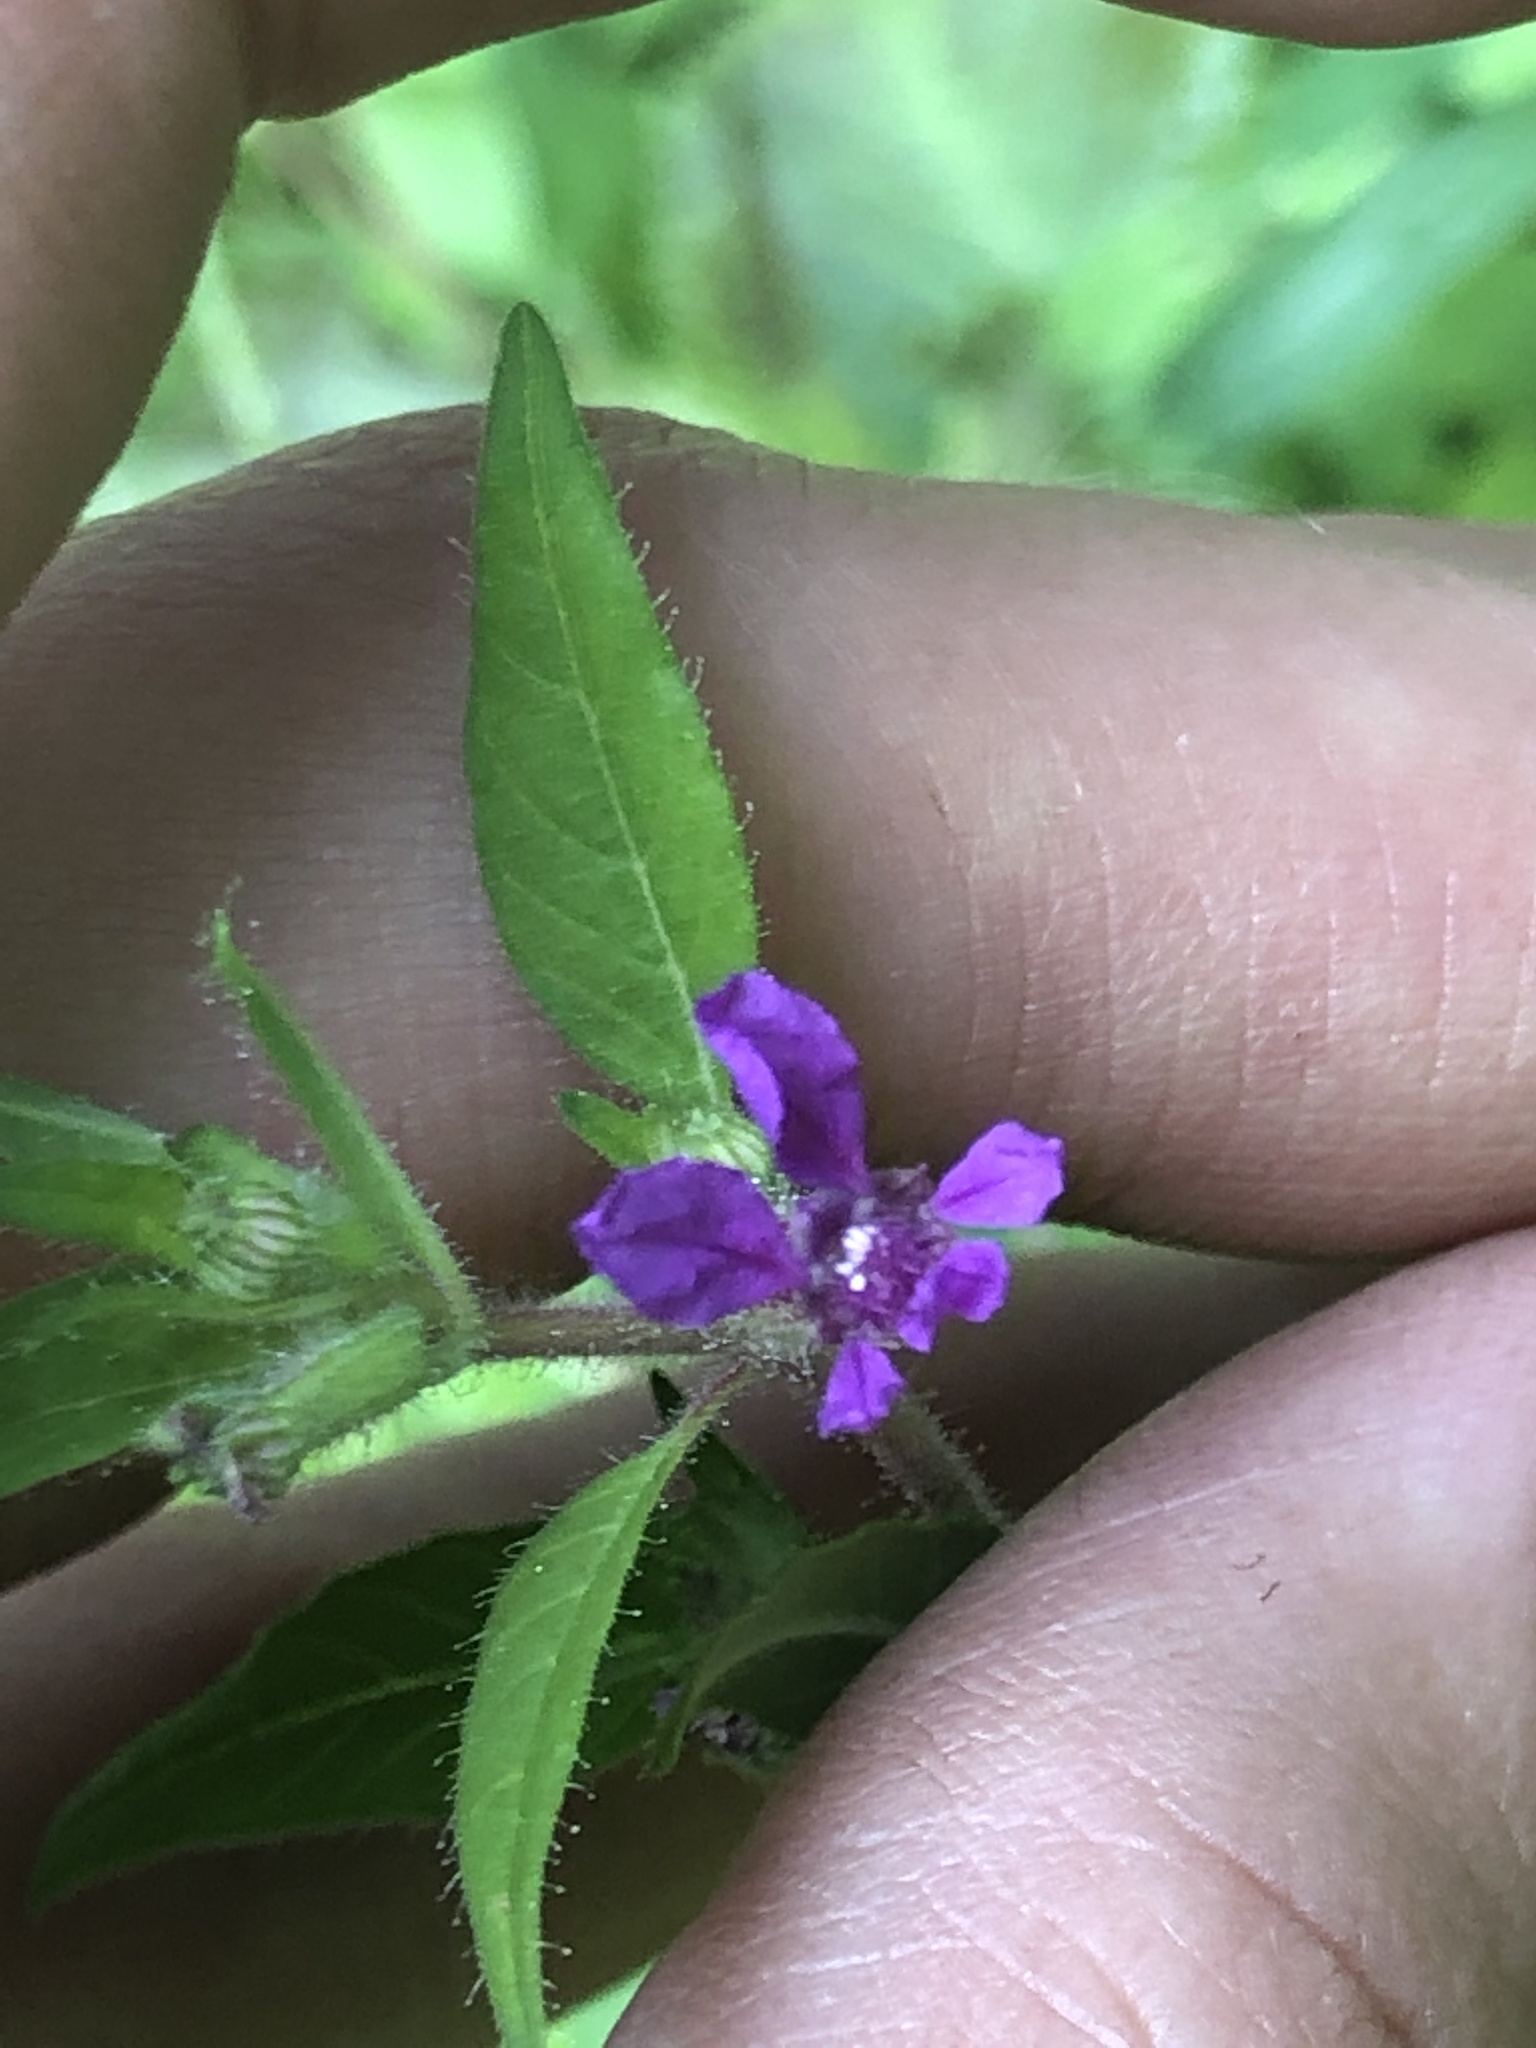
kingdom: Plantae
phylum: Tracheophyta
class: Magnoliopsida
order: Myrtales
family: Lythraceae
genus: Cuphea
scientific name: Cuphea viscosissima
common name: Clammy cuphea
